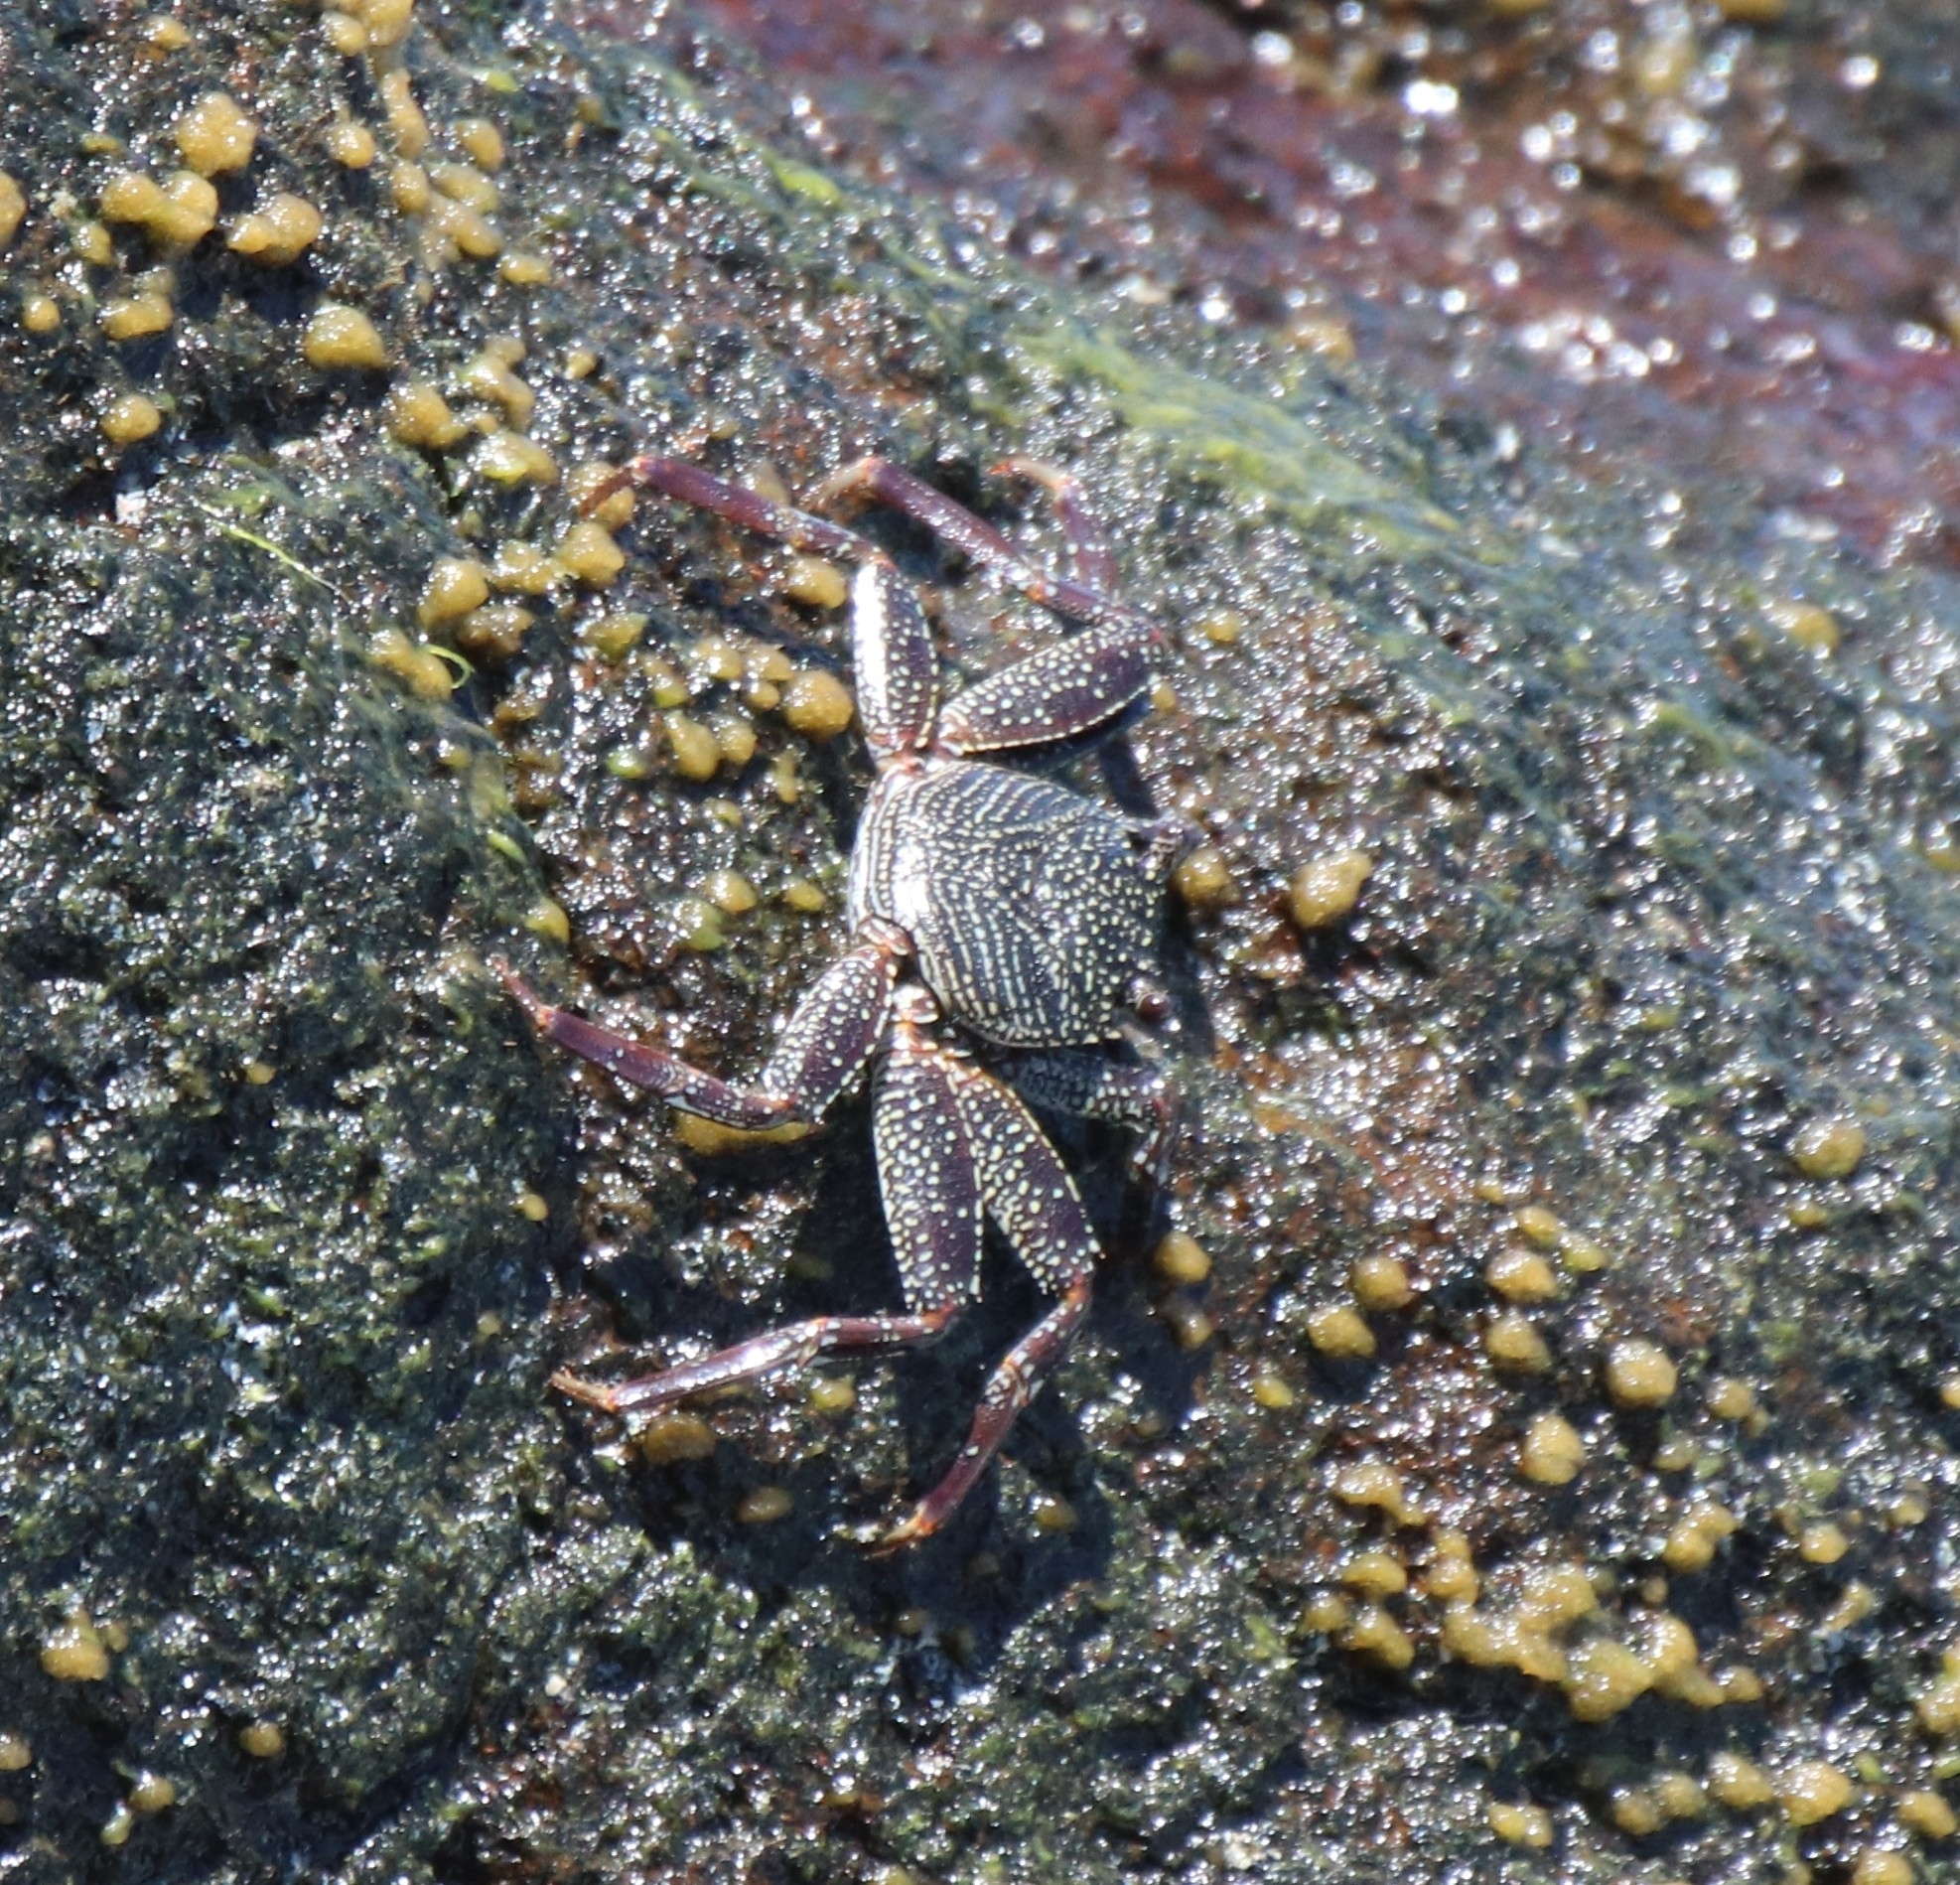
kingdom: Animalia
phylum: Arthropoda
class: Malacostraca
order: Decapoda
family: Grapsidae
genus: Grapsus
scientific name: Grapsus tenuicrustatus
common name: Natal lightfoot crab
